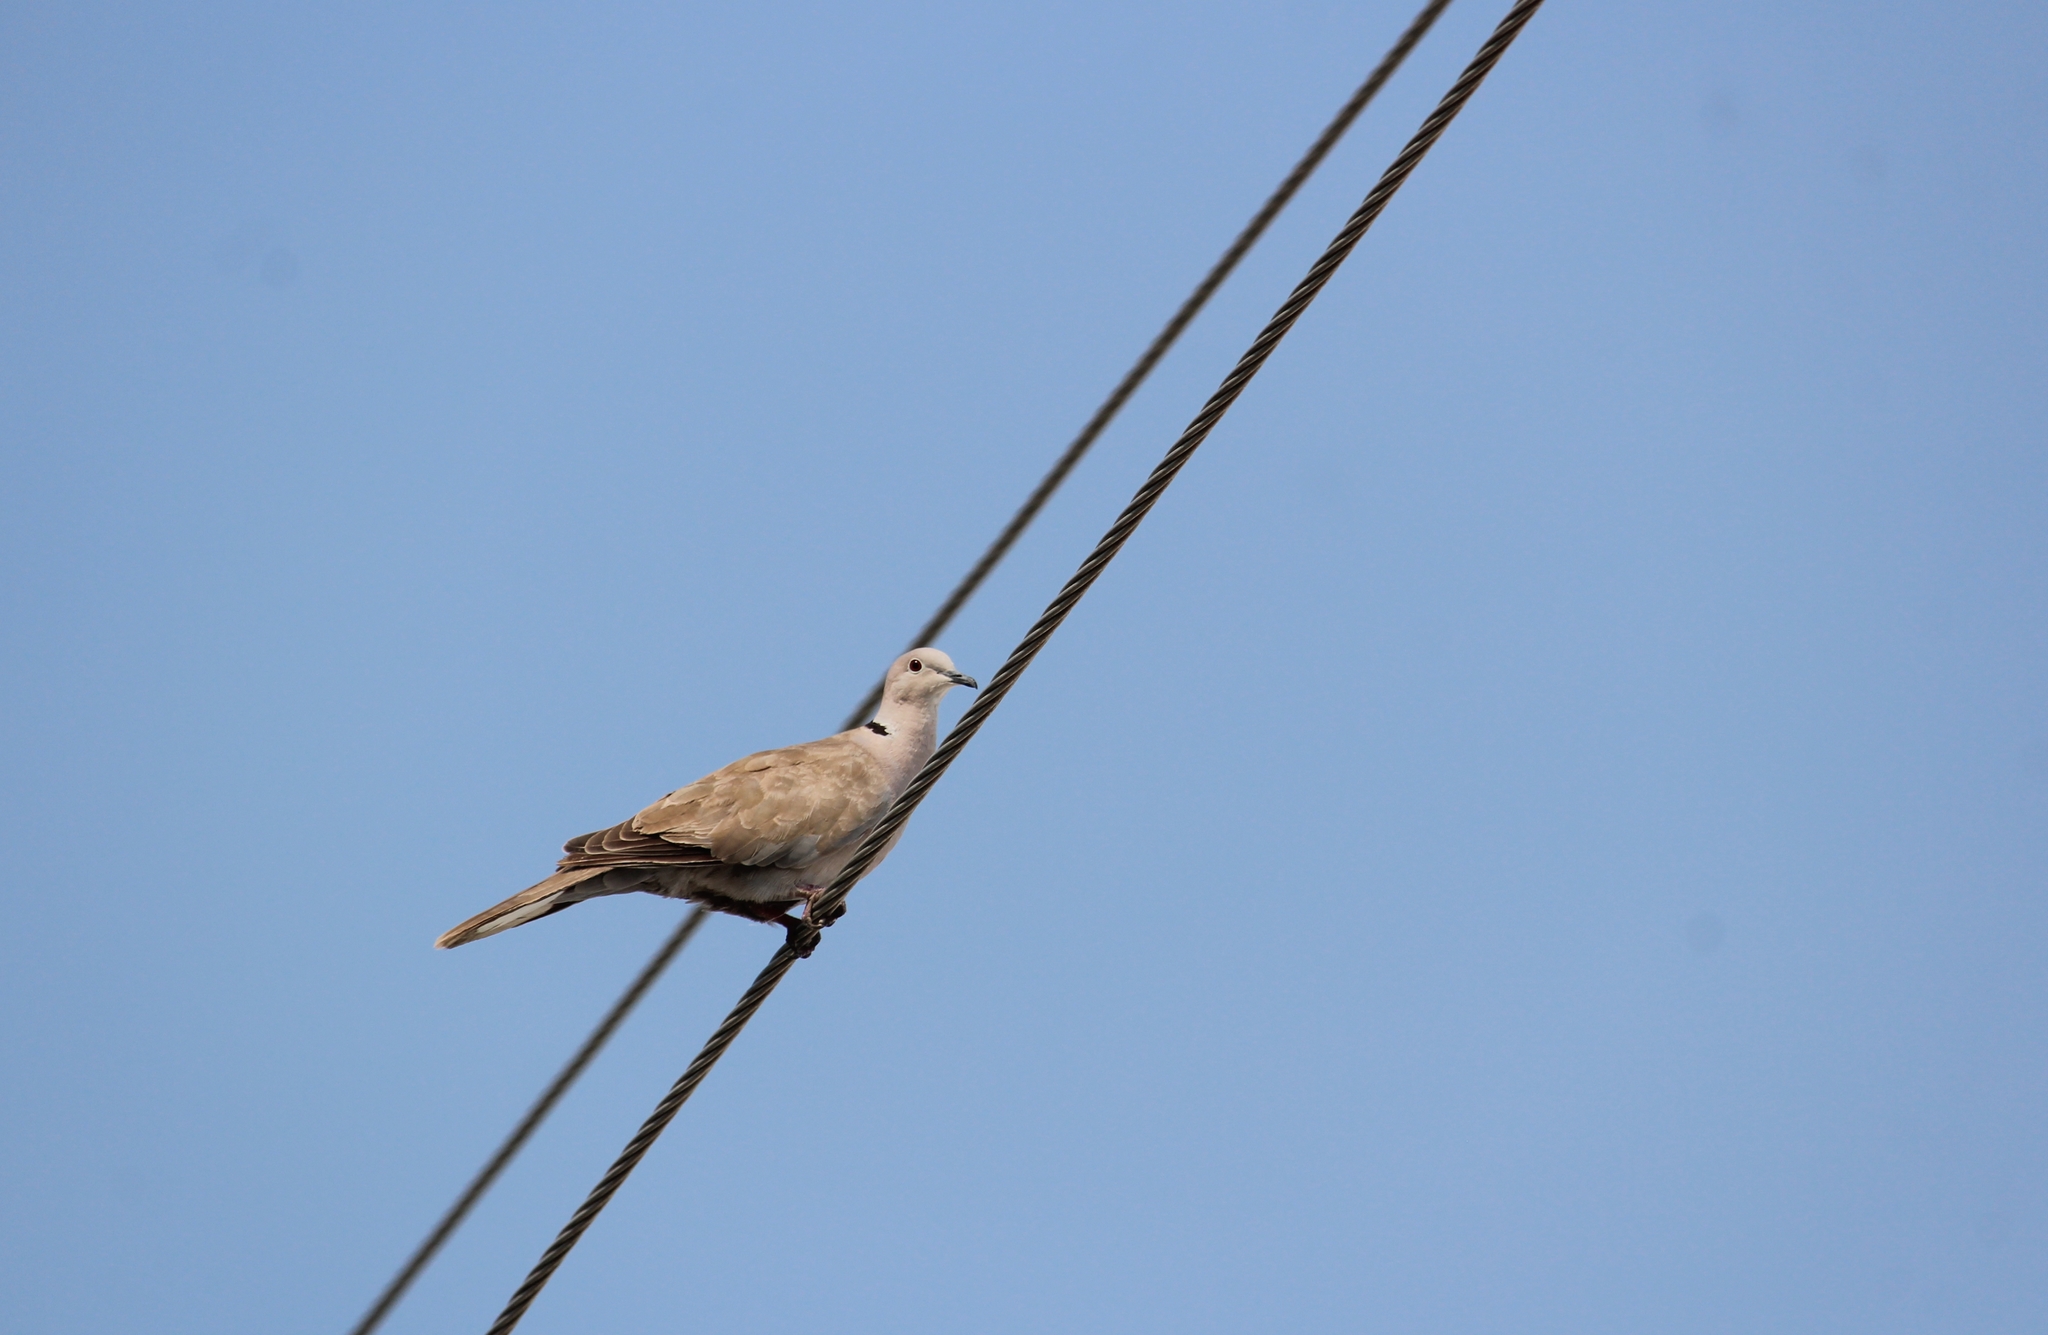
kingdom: Animalia
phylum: Chordata
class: Aves
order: Columbiformes
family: Columbidae
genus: Streptopelia
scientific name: Streptopelia decaocto
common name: Eurasian collared dove
